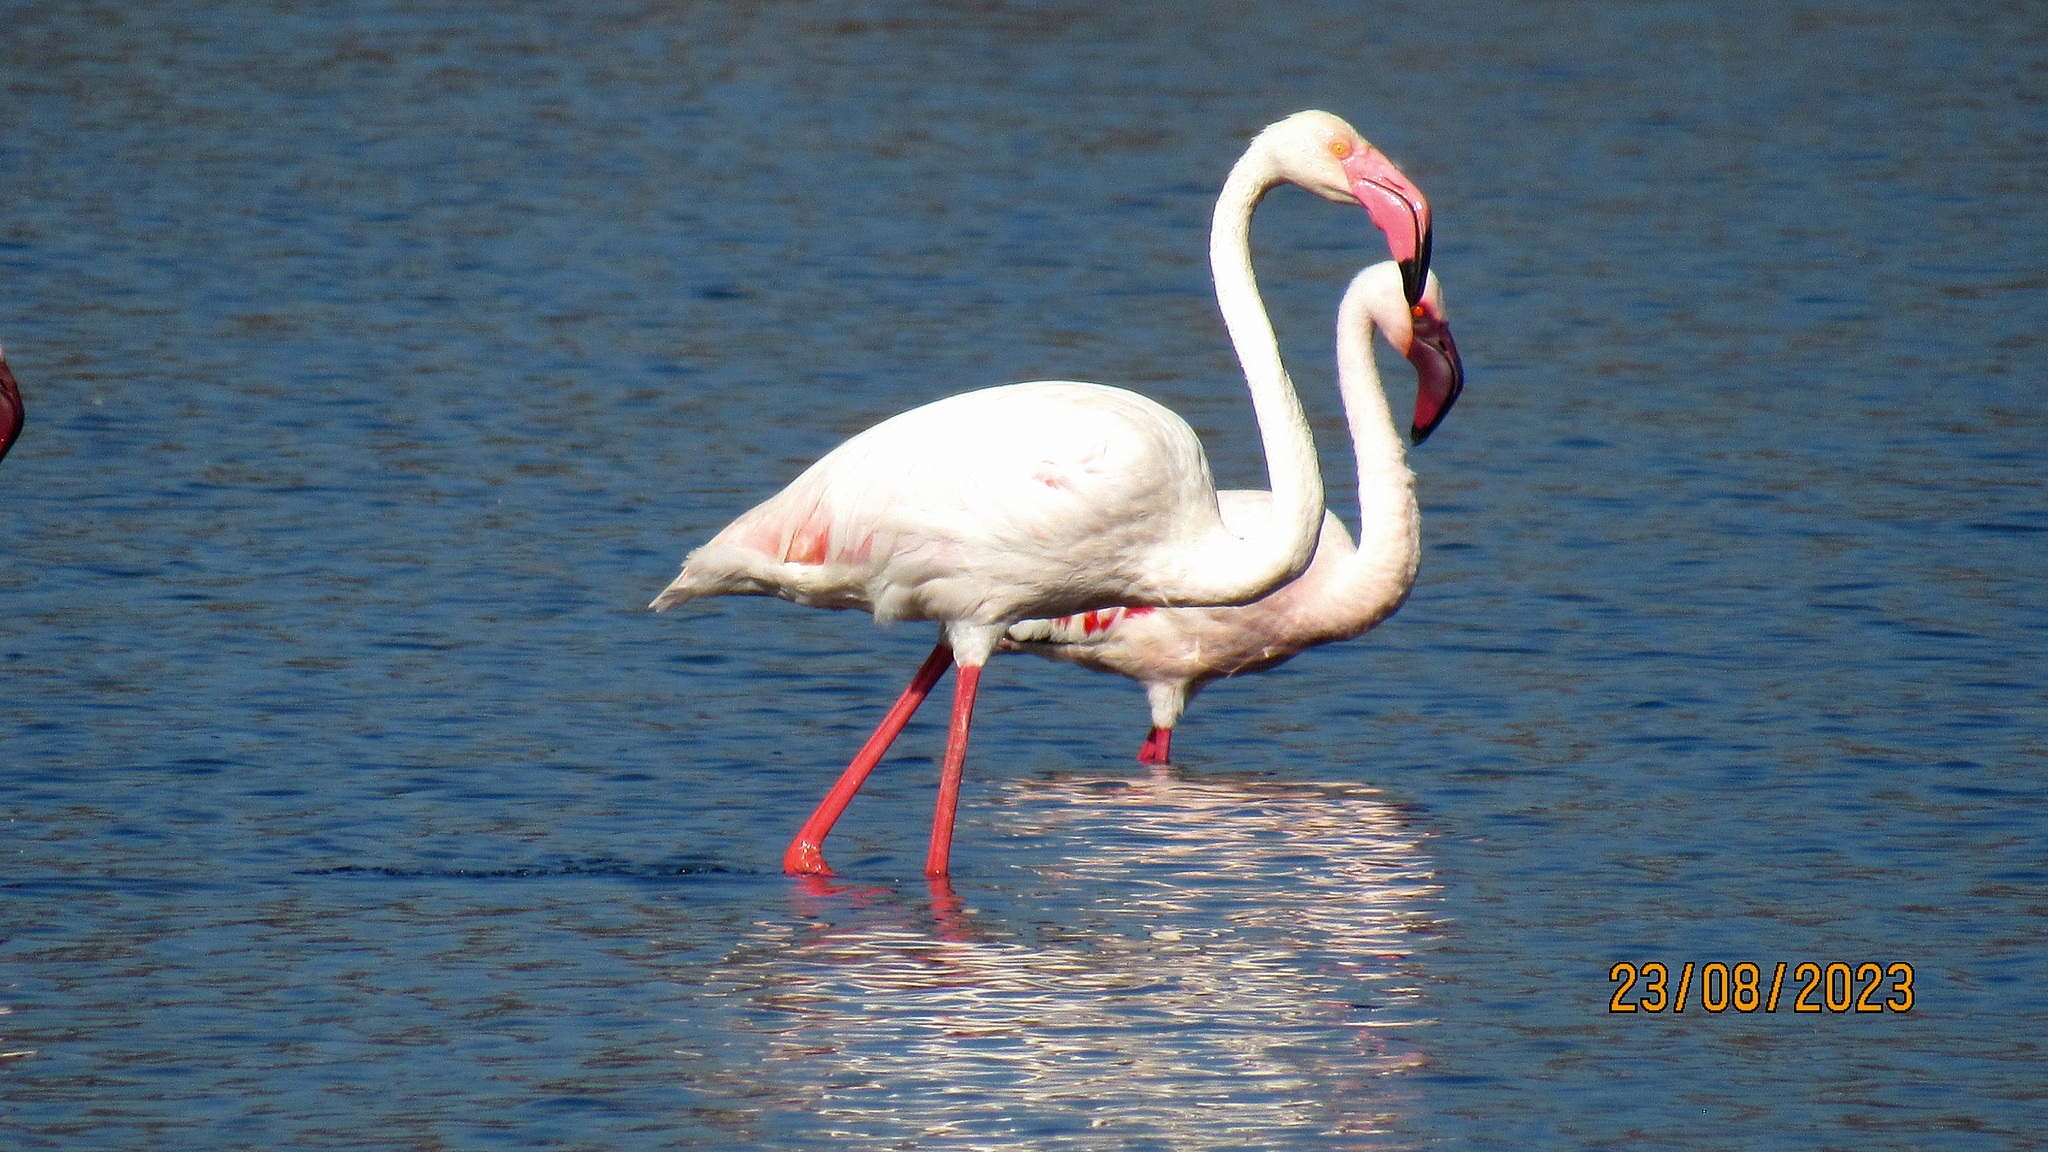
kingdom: Animalia
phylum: Chordata
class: Aves
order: Phoenicopteriformes
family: Phoenicopteridae
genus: Phoenicopterus
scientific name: Phoenicopterus roseus
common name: Greater flamingo
